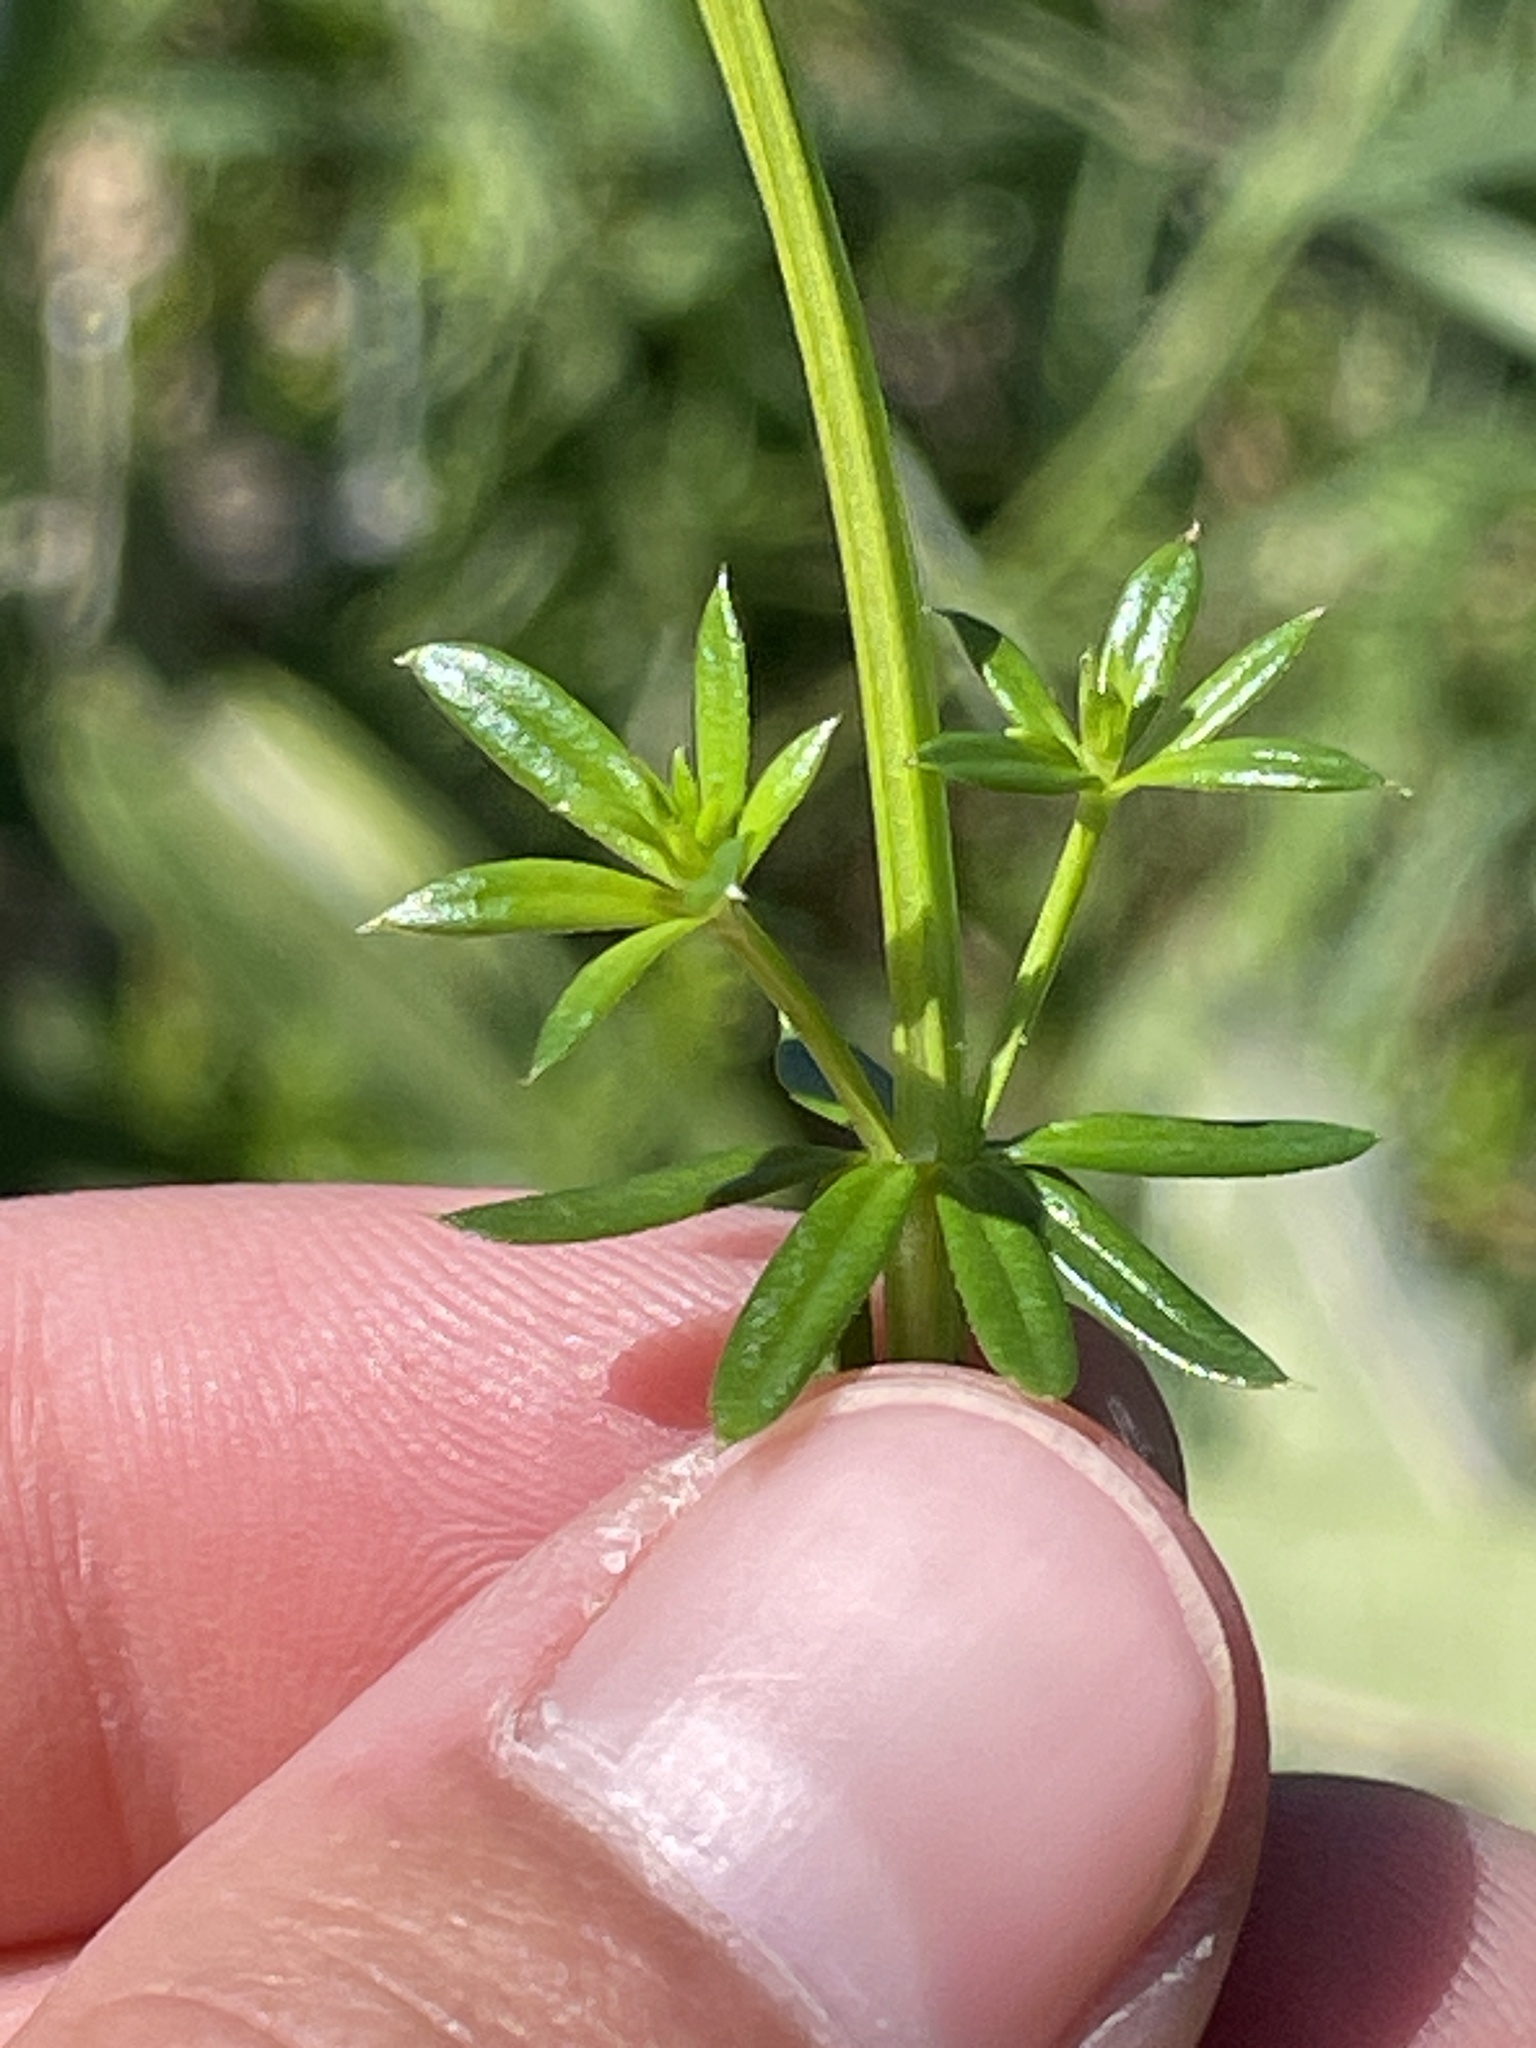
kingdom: Plantae
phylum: Tracheophyta
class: Magnoliopsida
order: Gentianales
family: Rubiaceae
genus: Galium
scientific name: Galium album
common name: White bedstraw
